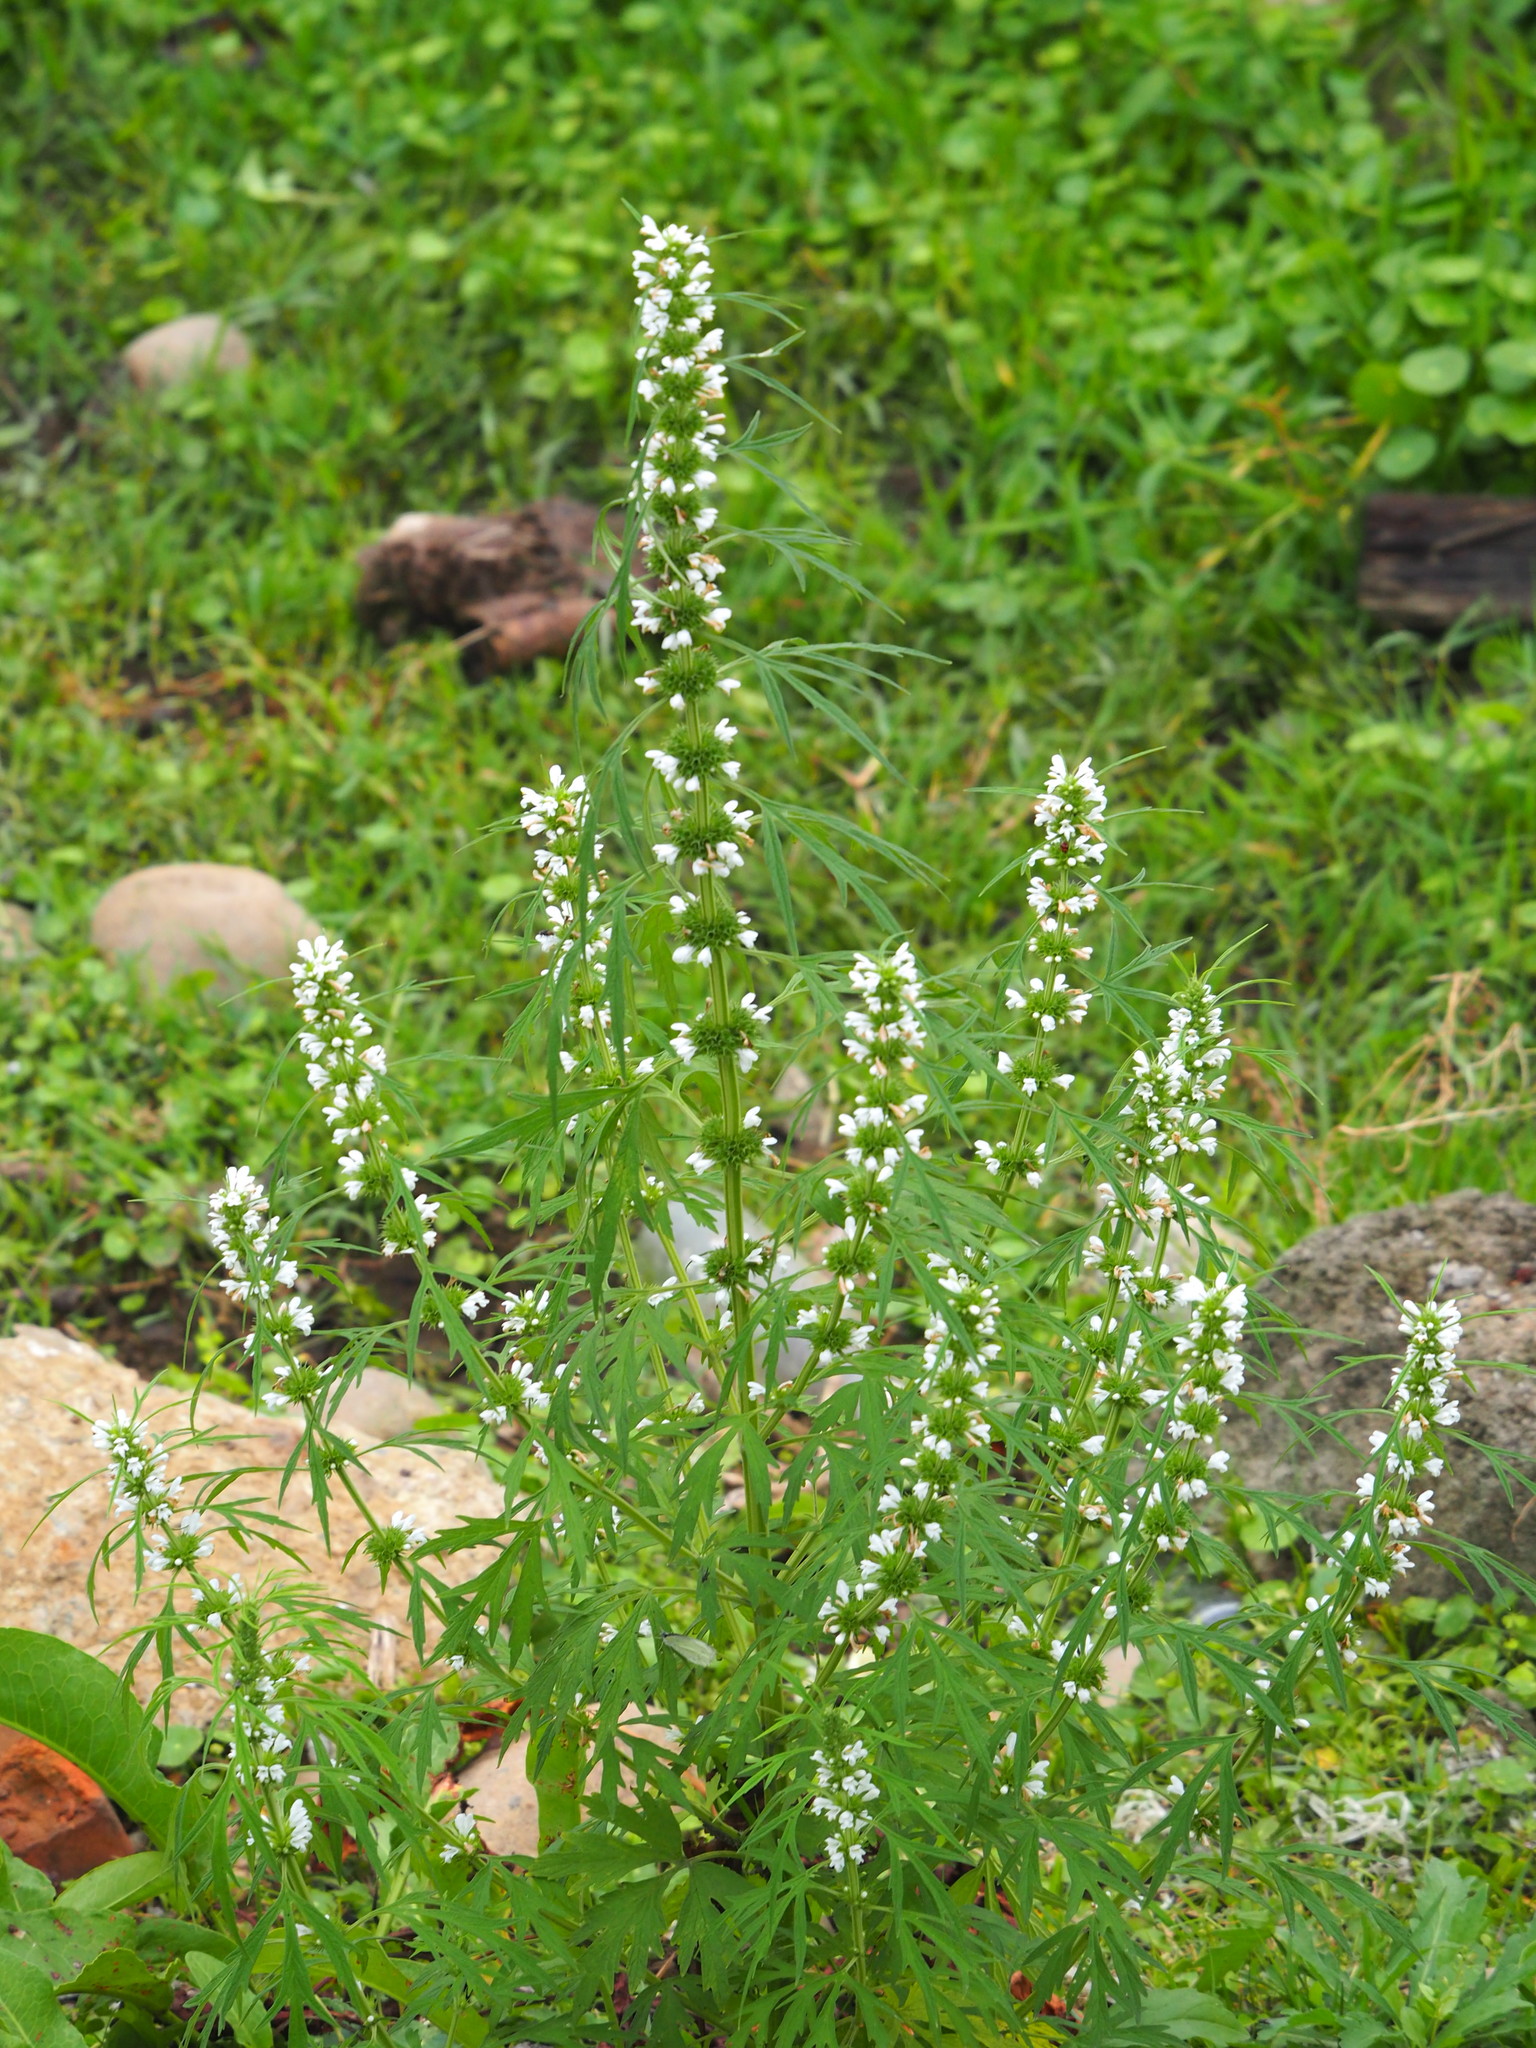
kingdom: Plantae
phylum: Tracheophyta
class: Magnoliopsida
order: Lamiales
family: Lamiaceae
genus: Leonurus
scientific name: Leonurus japonicus
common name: Honeyweed
